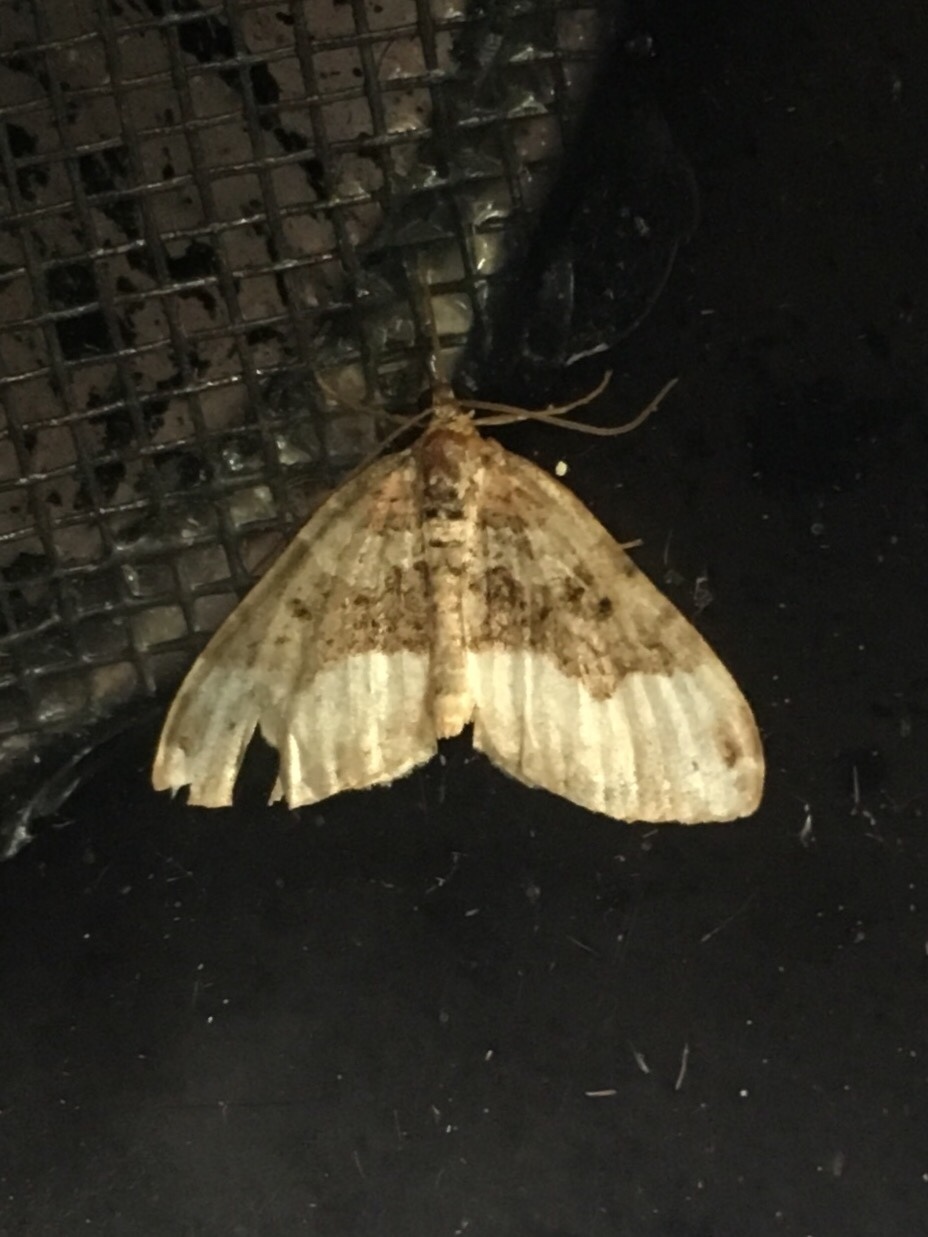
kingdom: Animalia
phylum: Arthropoda
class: Insecta
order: Lepidoptera
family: Geometridae
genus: Euphyia
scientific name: Euphyia intermediata
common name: Sharp-angled carpet
